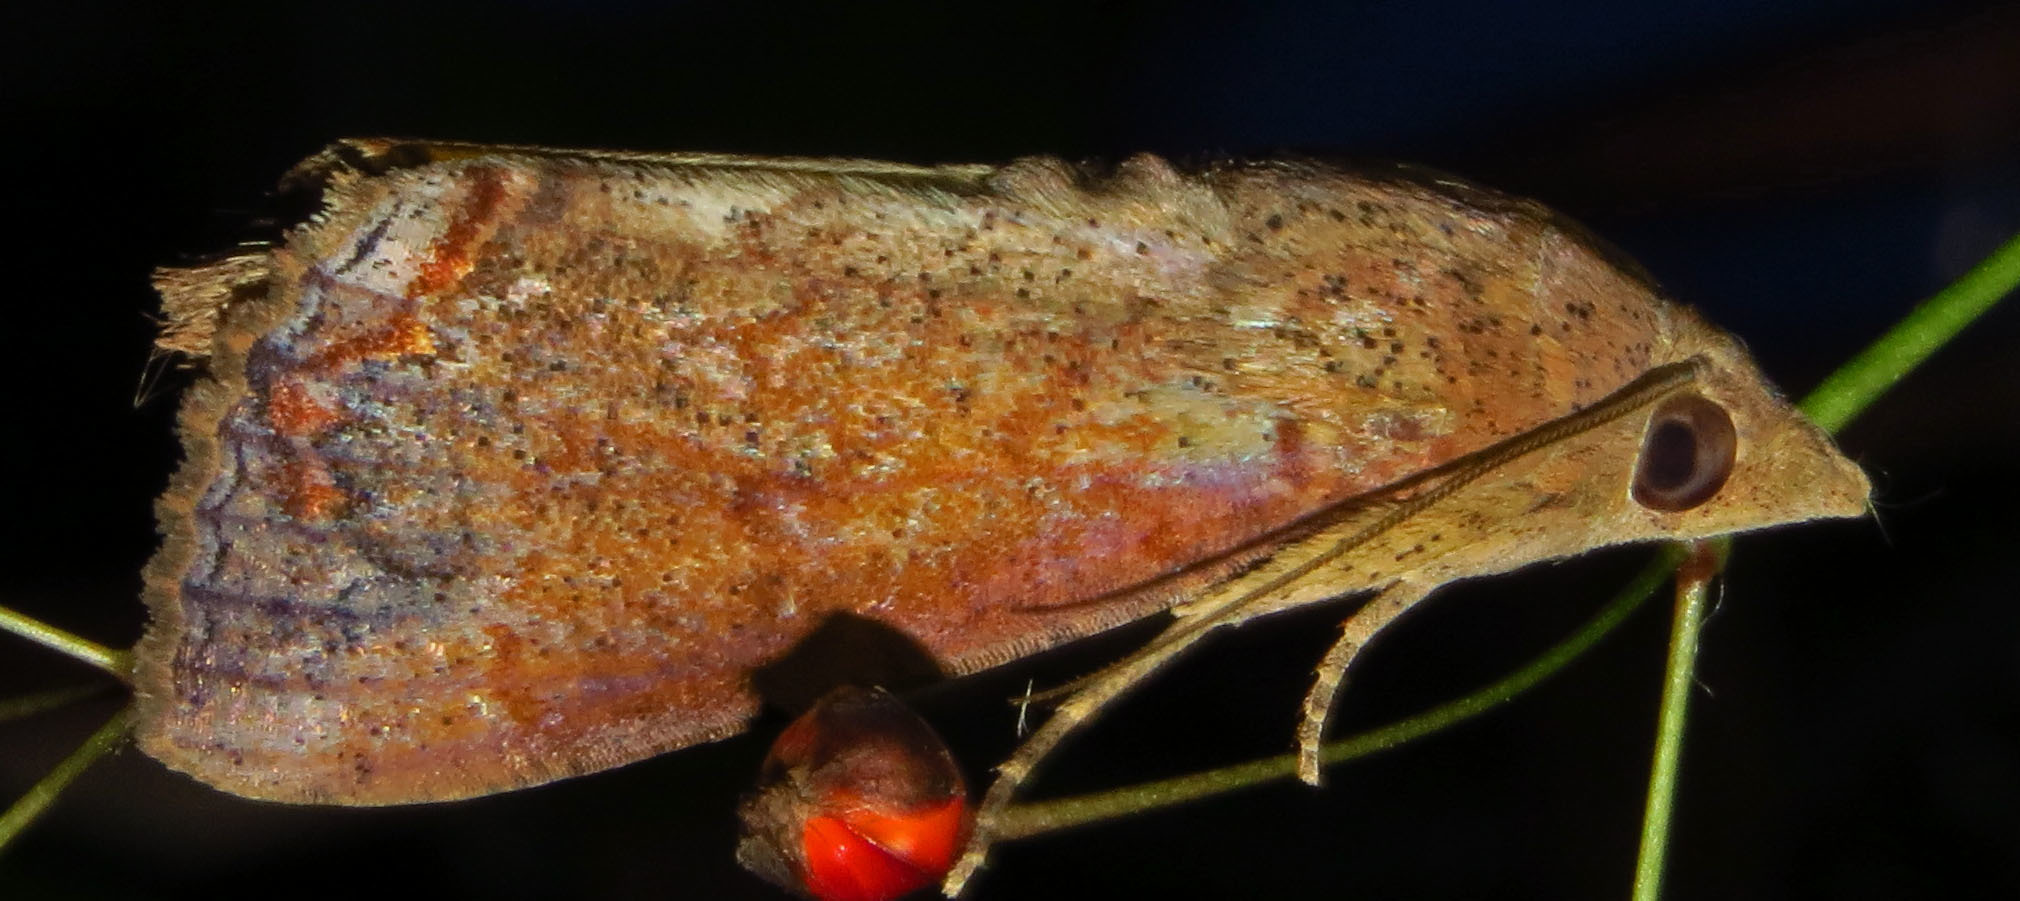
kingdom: Animalia
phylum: Arthropoda
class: Insecta
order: Lepidoptera
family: Erebidae
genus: Hypocala
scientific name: Hypocala andremona
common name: Hypocala moth
